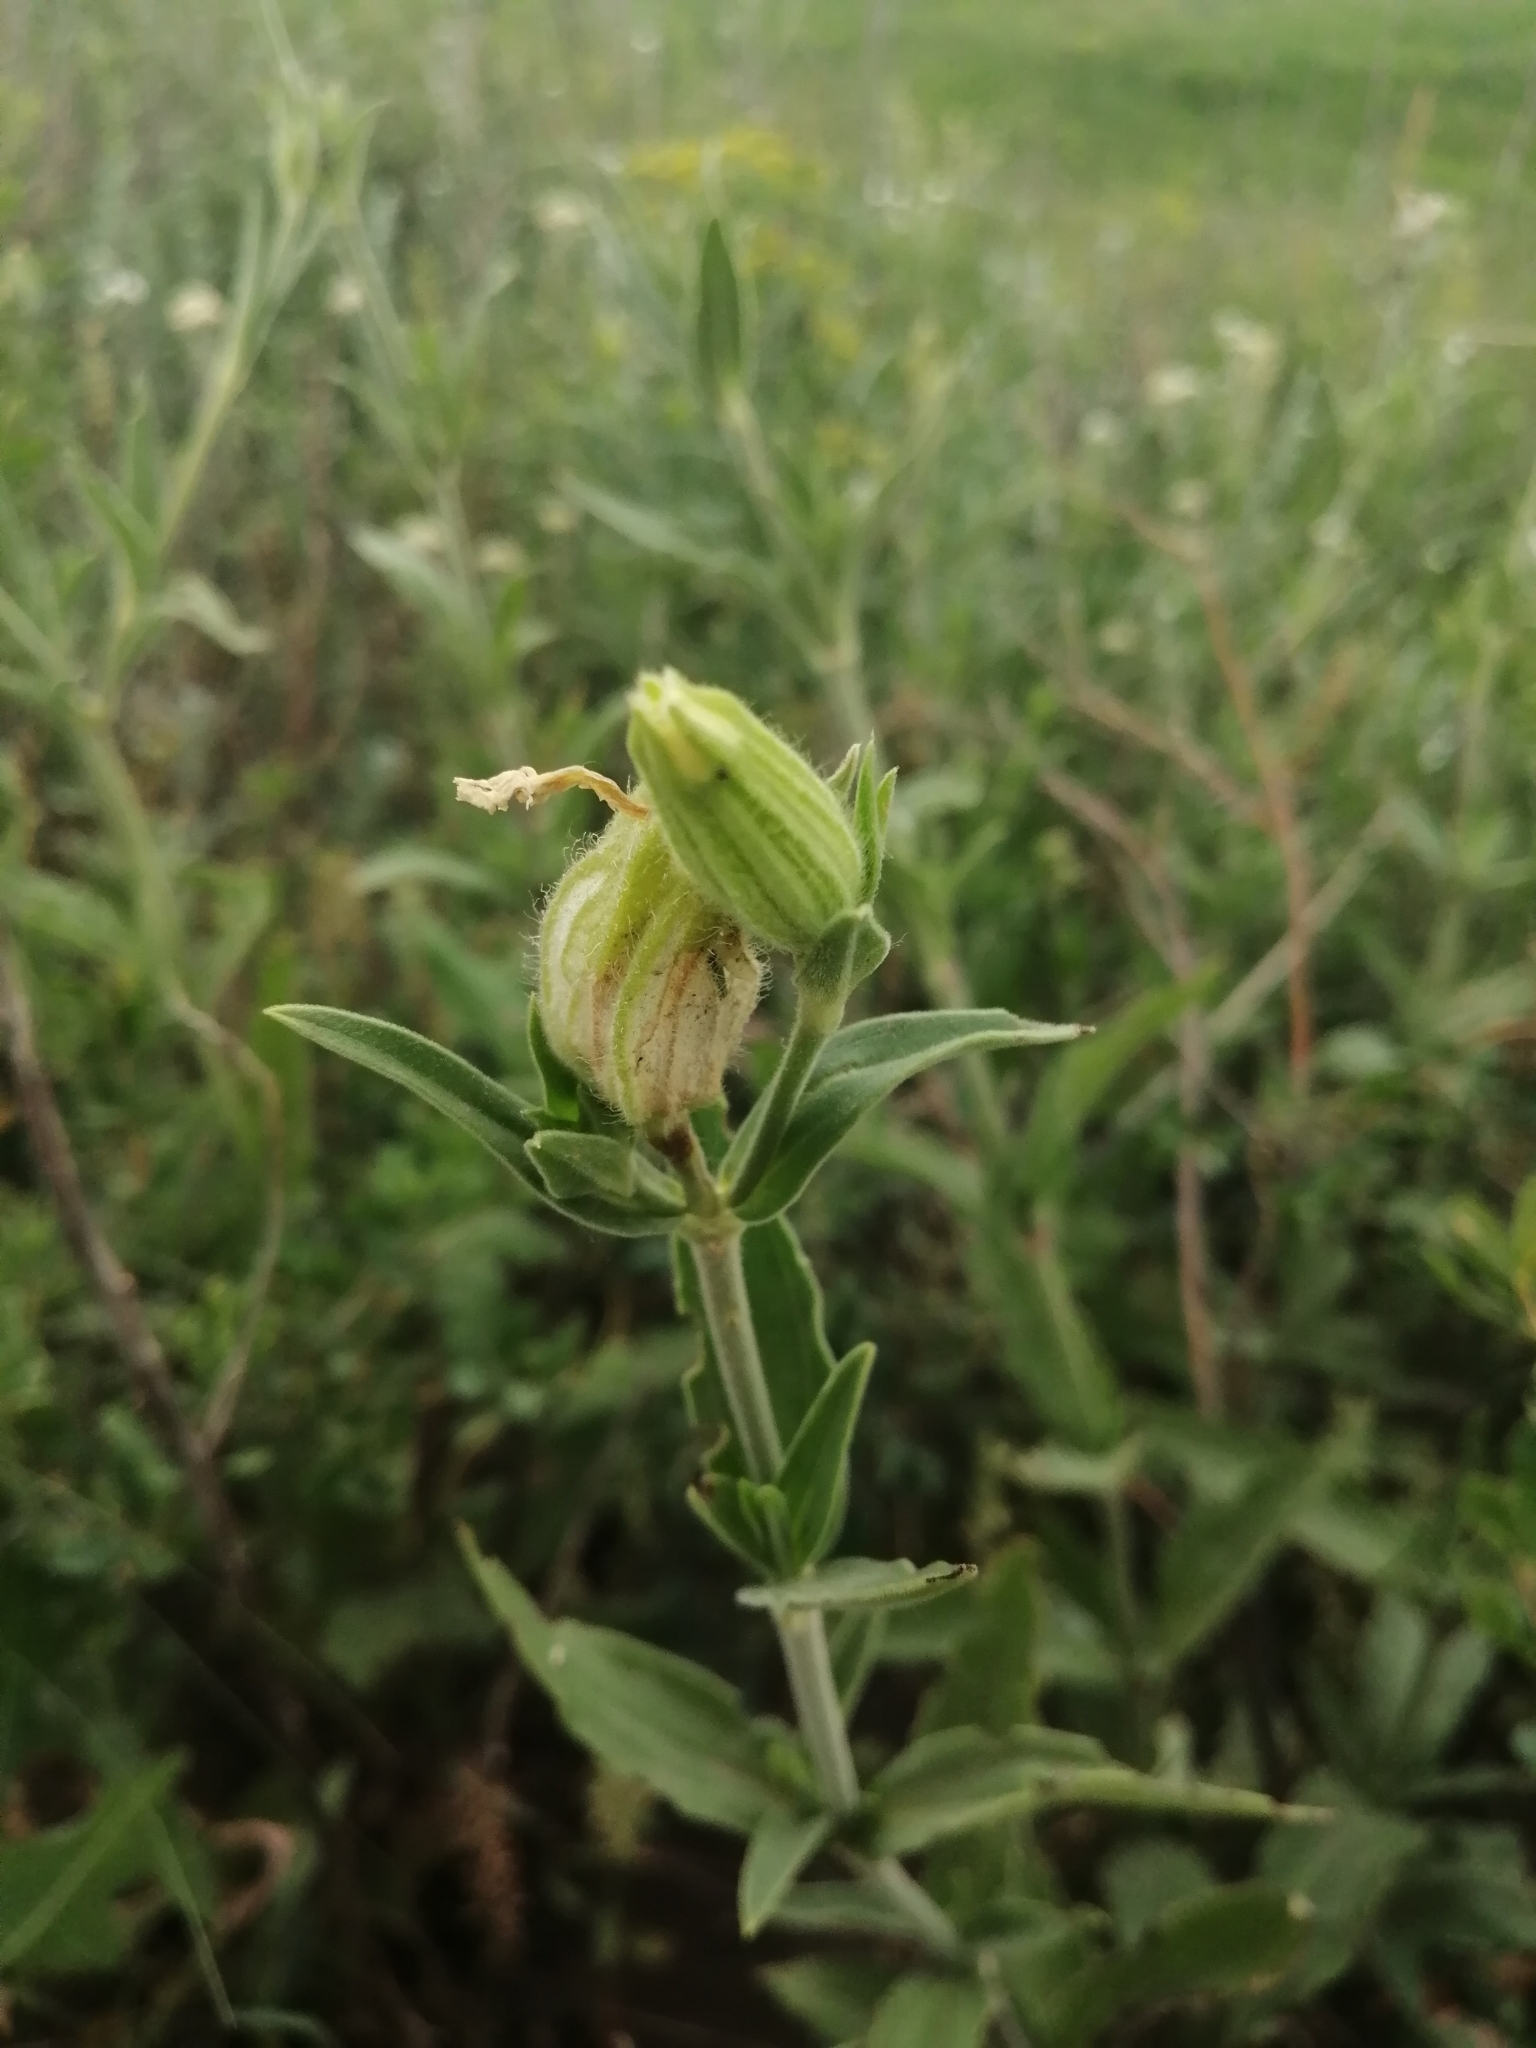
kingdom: Plantae
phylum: Tracheophyta
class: Magnoliopsida
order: Caryophyllales
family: Caryophyllaceae
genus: Silene
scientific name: Silene latifolia
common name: White campion
